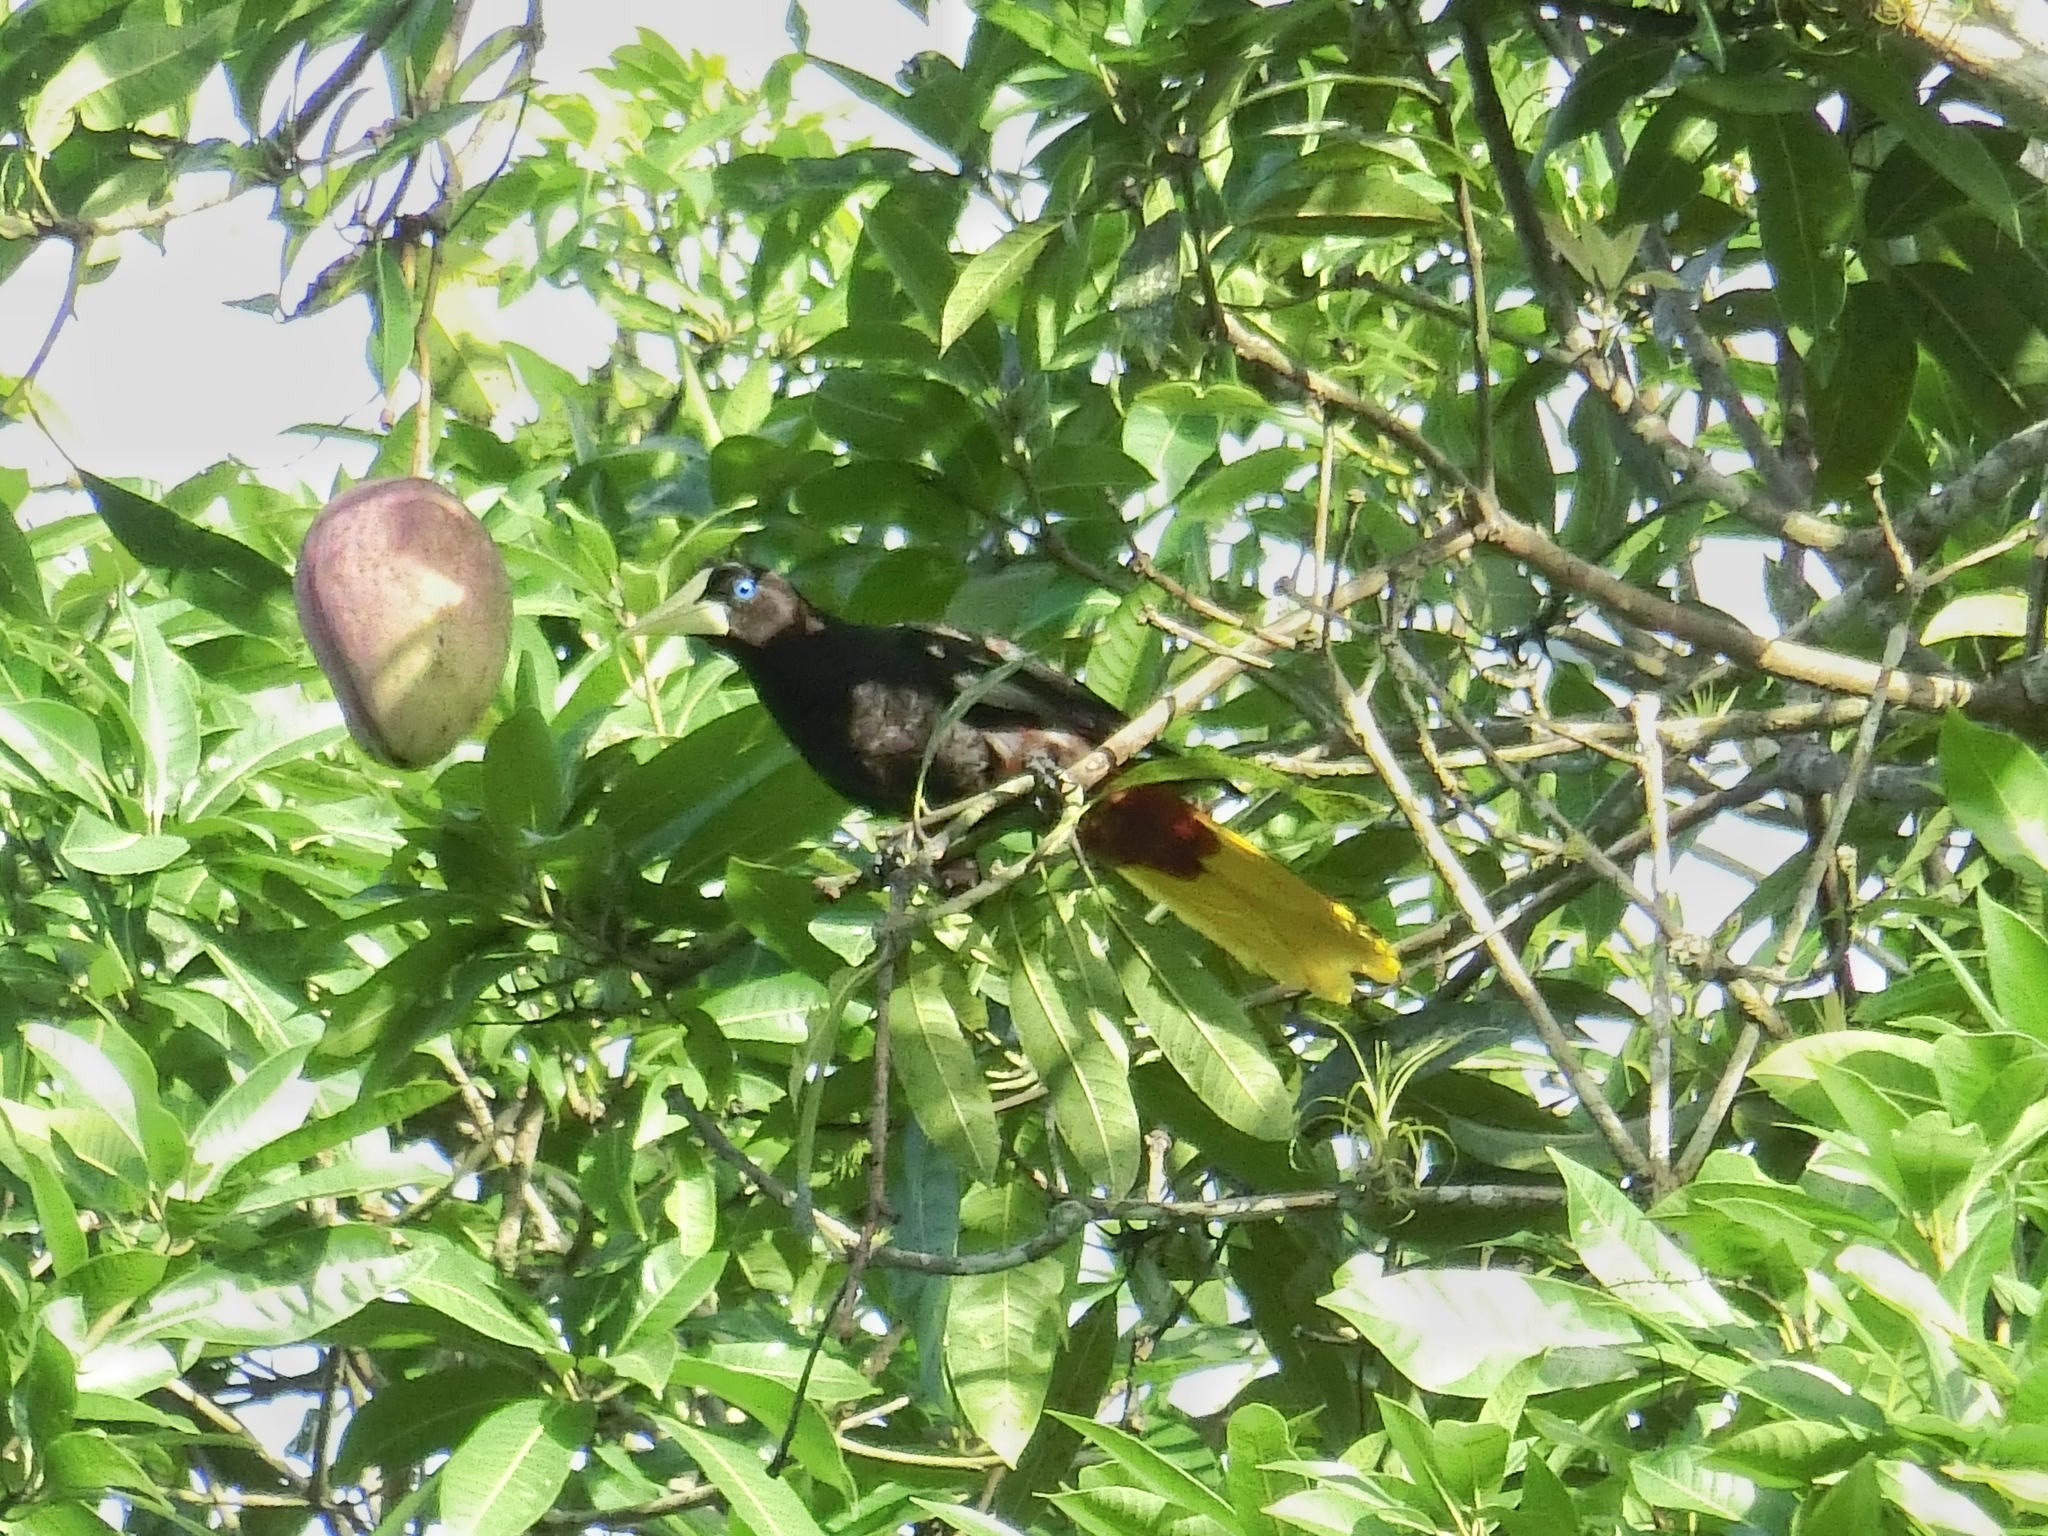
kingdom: Animalia
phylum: Chordata
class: Aves
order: Passeriformes
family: Icteridae
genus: Psarocolius
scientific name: Psarocolius decumanus
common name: Crested oropendola
